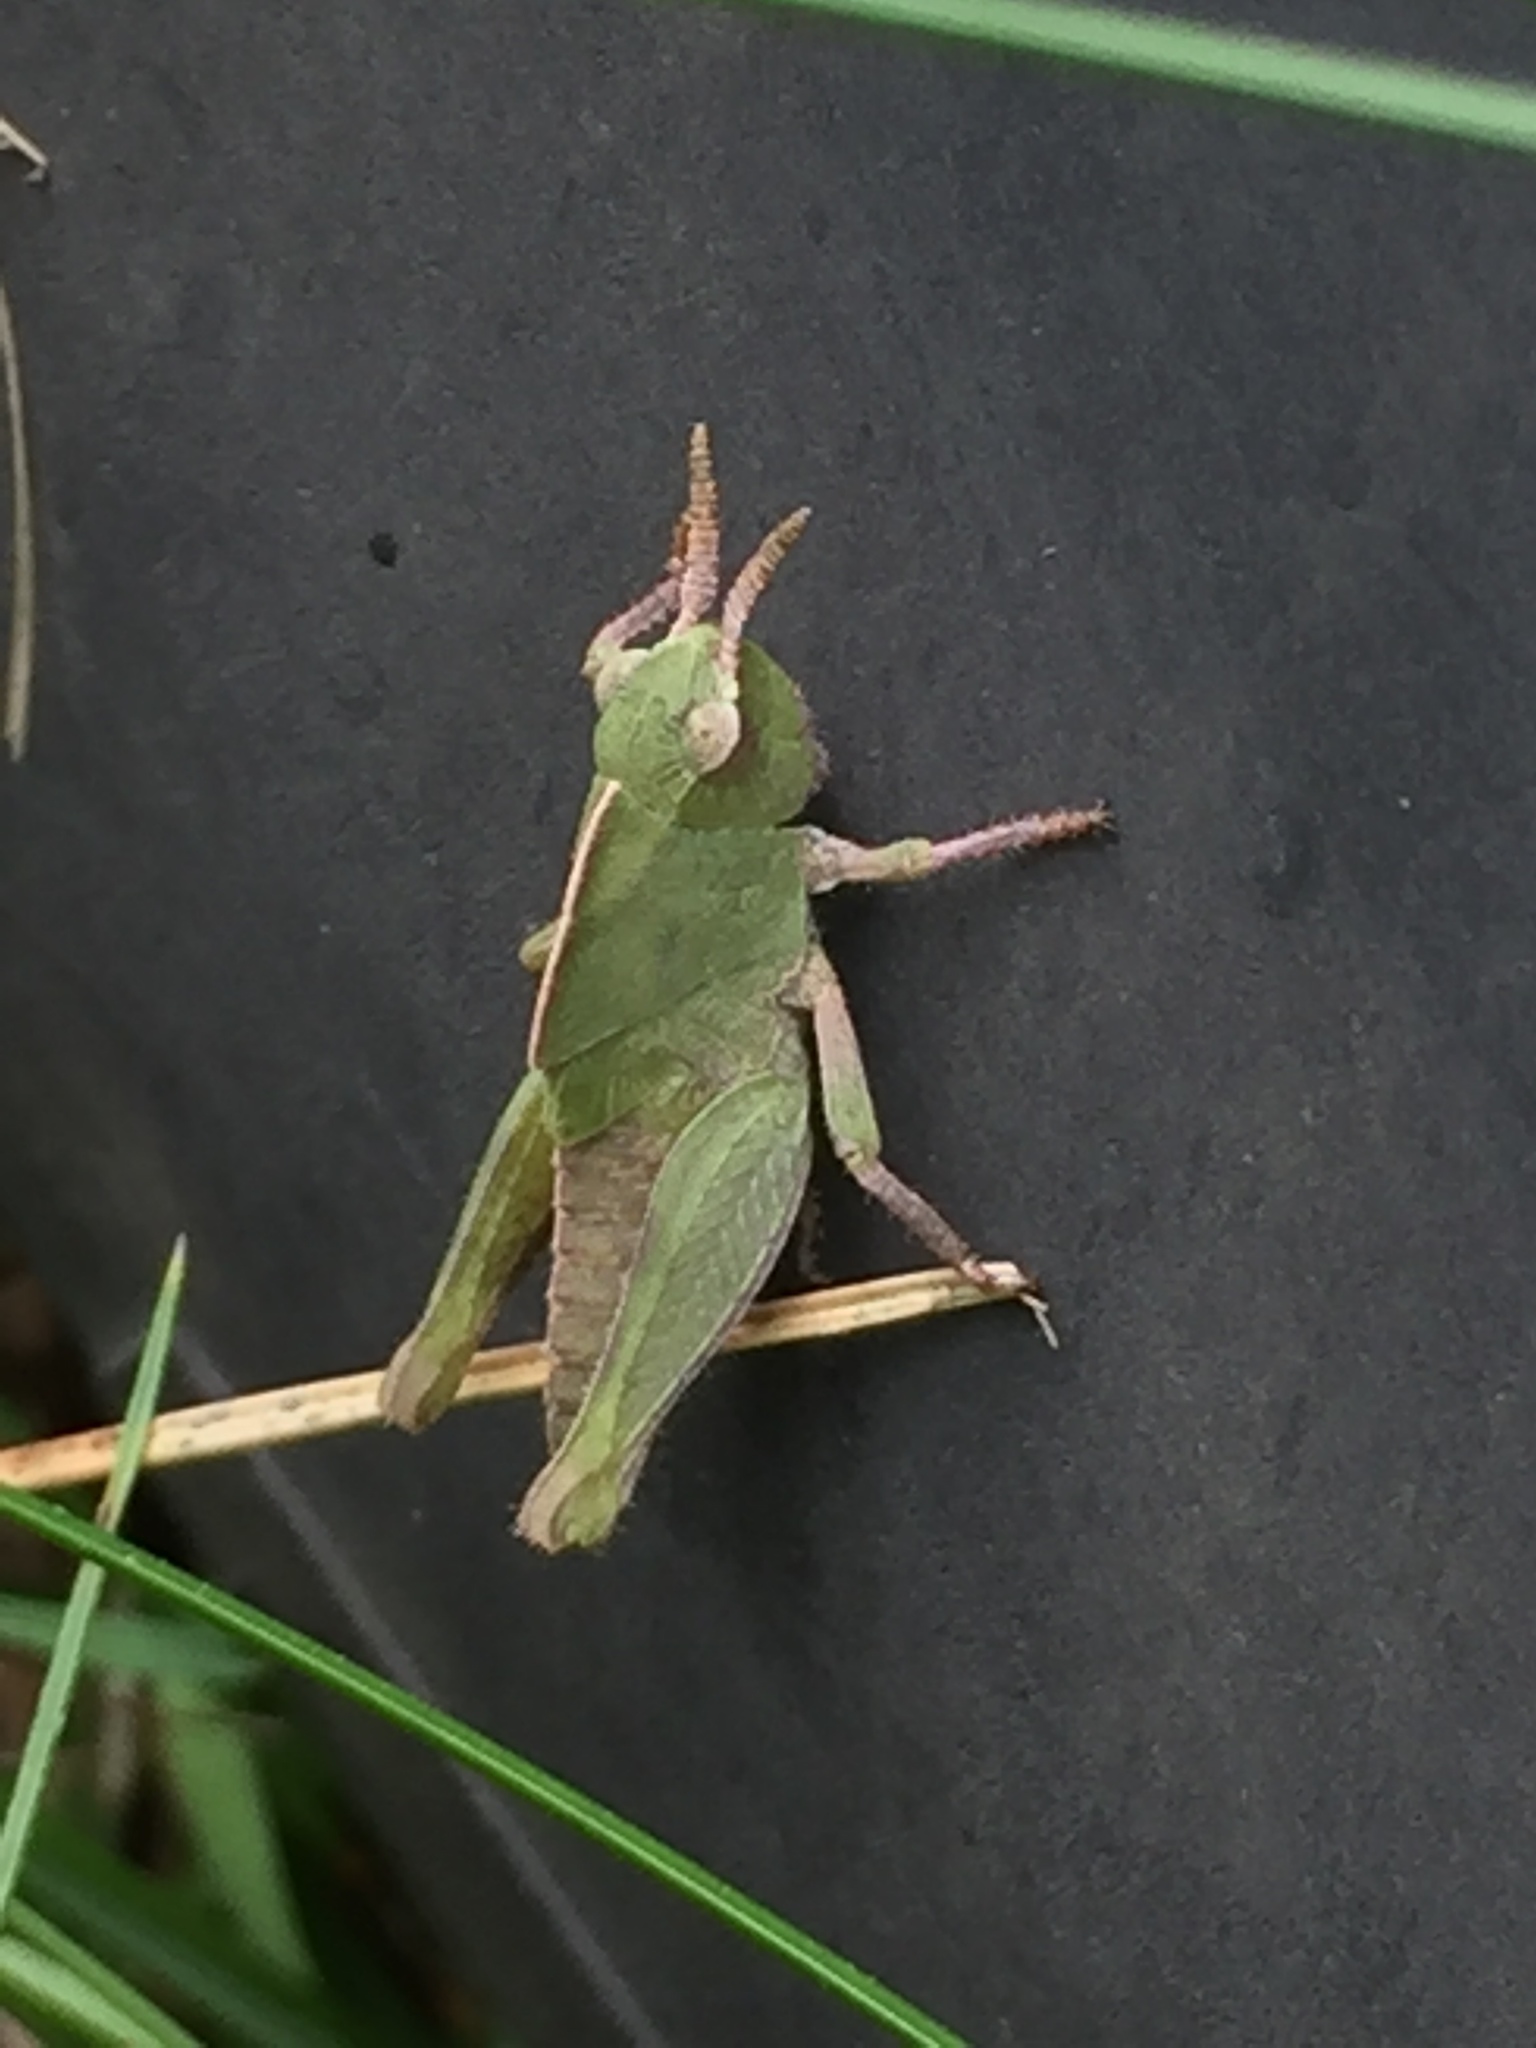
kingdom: Animalia
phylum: Arthropoda
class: Insecta
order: Orthoptera
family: Acrididae
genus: Chortophaga
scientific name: Chortophaga viridifasciata
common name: Green-striped grasshopper
